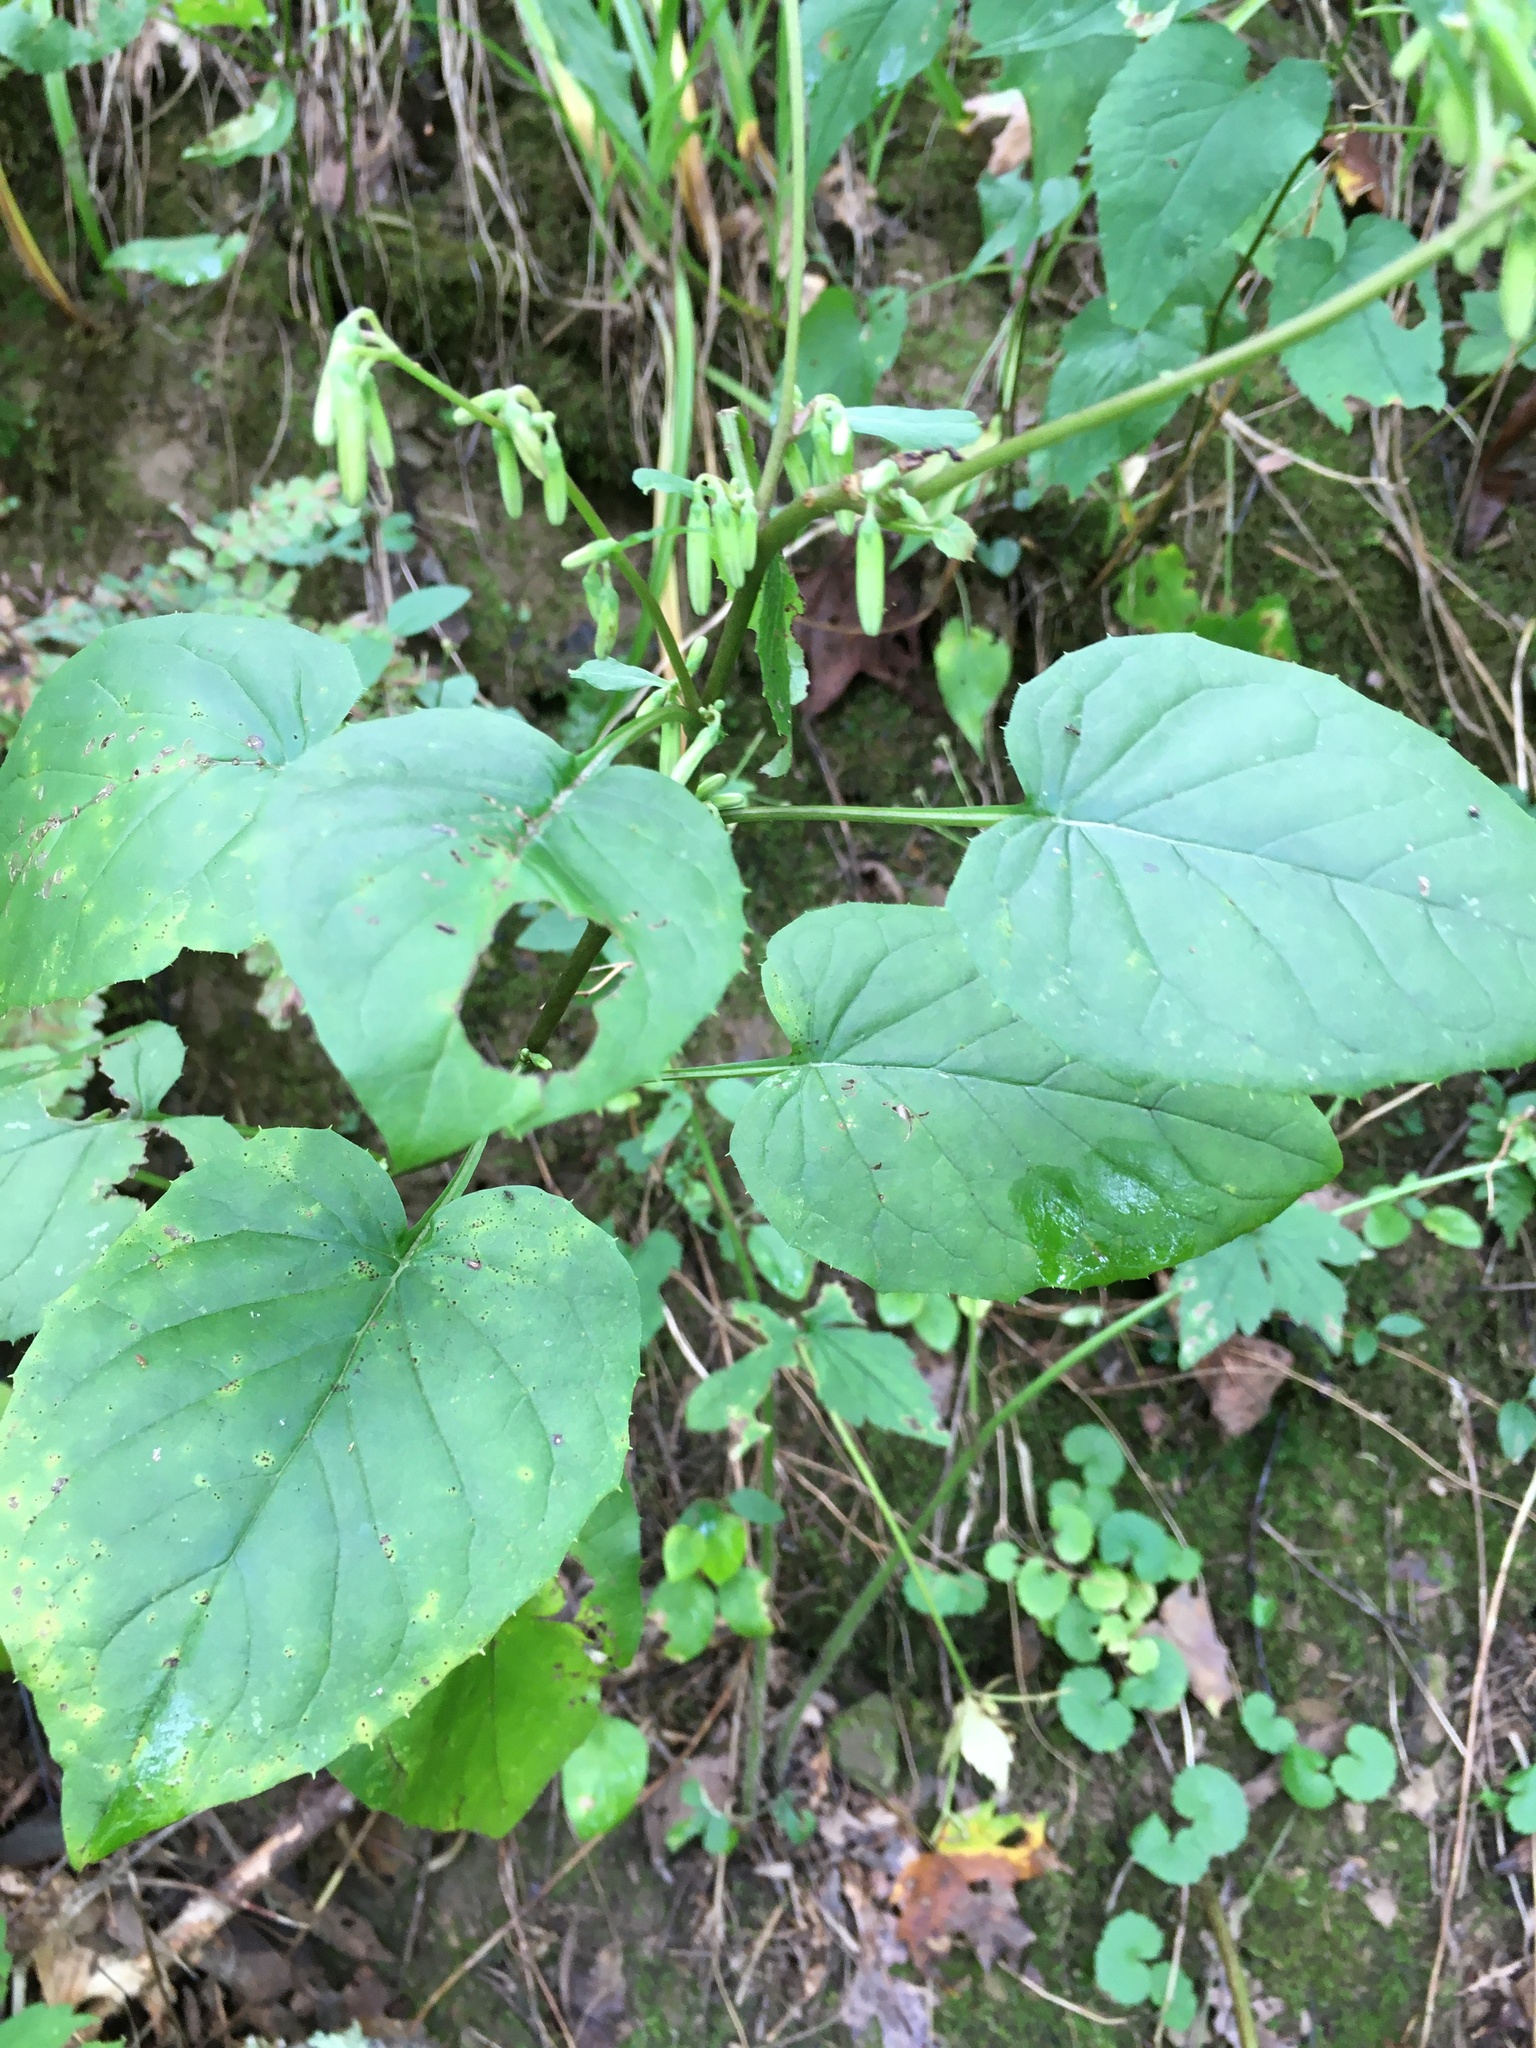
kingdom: Plantae
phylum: Tracheophyta
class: Magnoliopsida
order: Asterales
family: Asteraceae
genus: Nabalus
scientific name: Nabalus altissima
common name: Tall rattlesnakeroot
